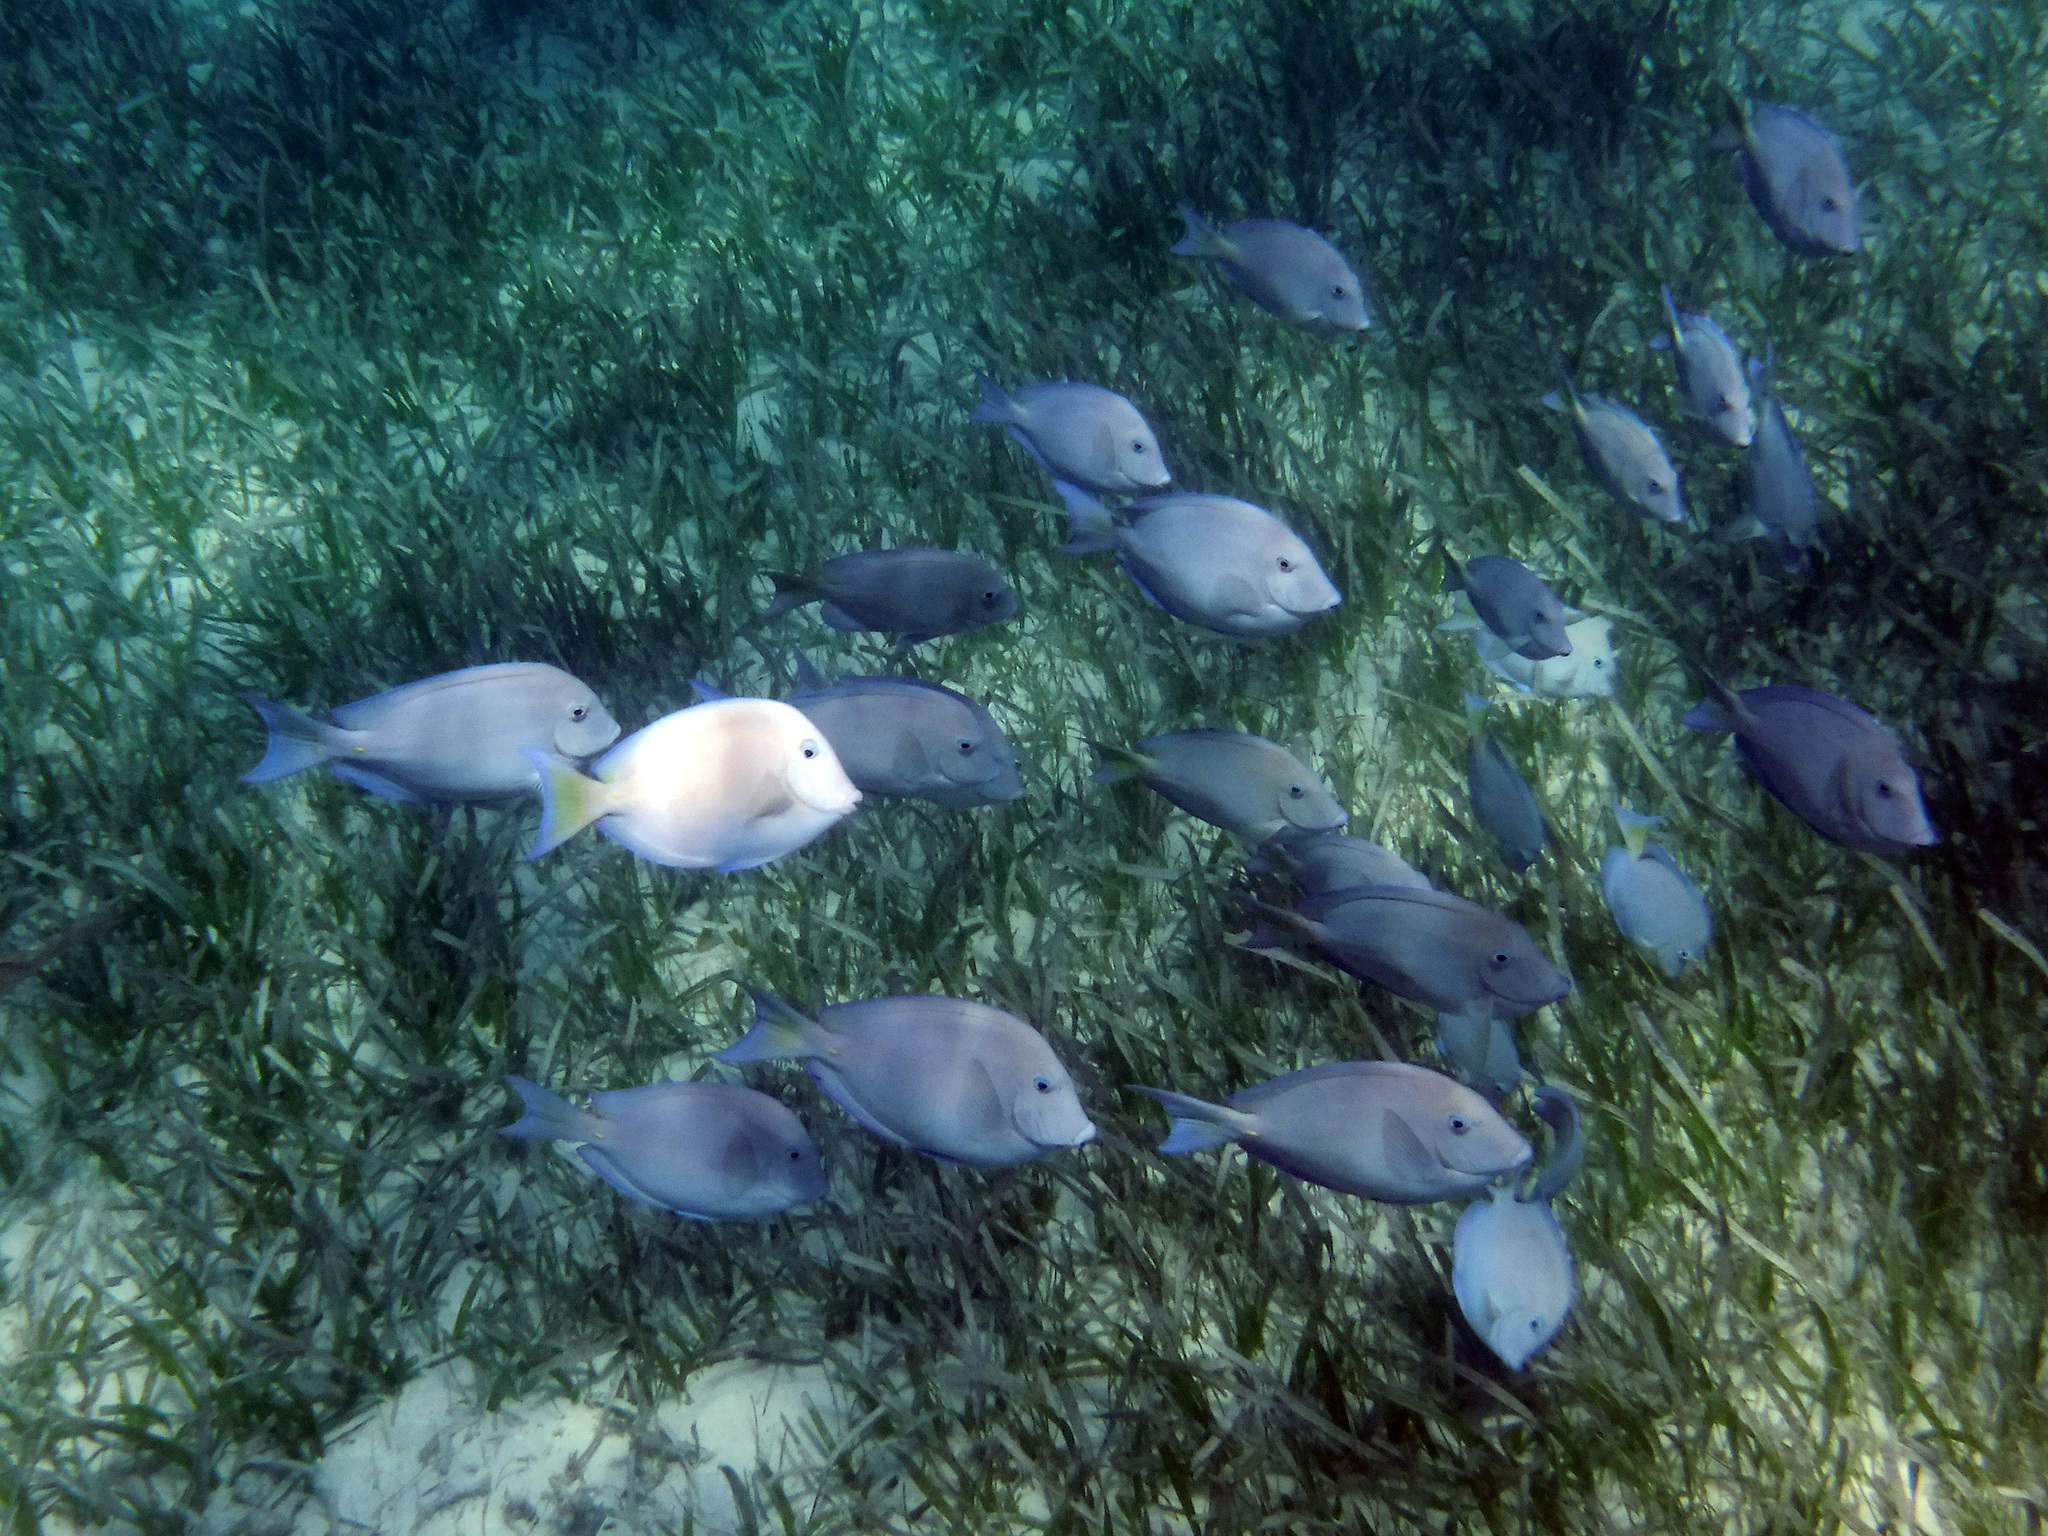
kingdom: Animalia
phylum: Chordata
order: Perciformes
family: Acanthuridae
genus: Acanthurus
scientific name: Acanthurus coeruleus
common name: Blue tang
